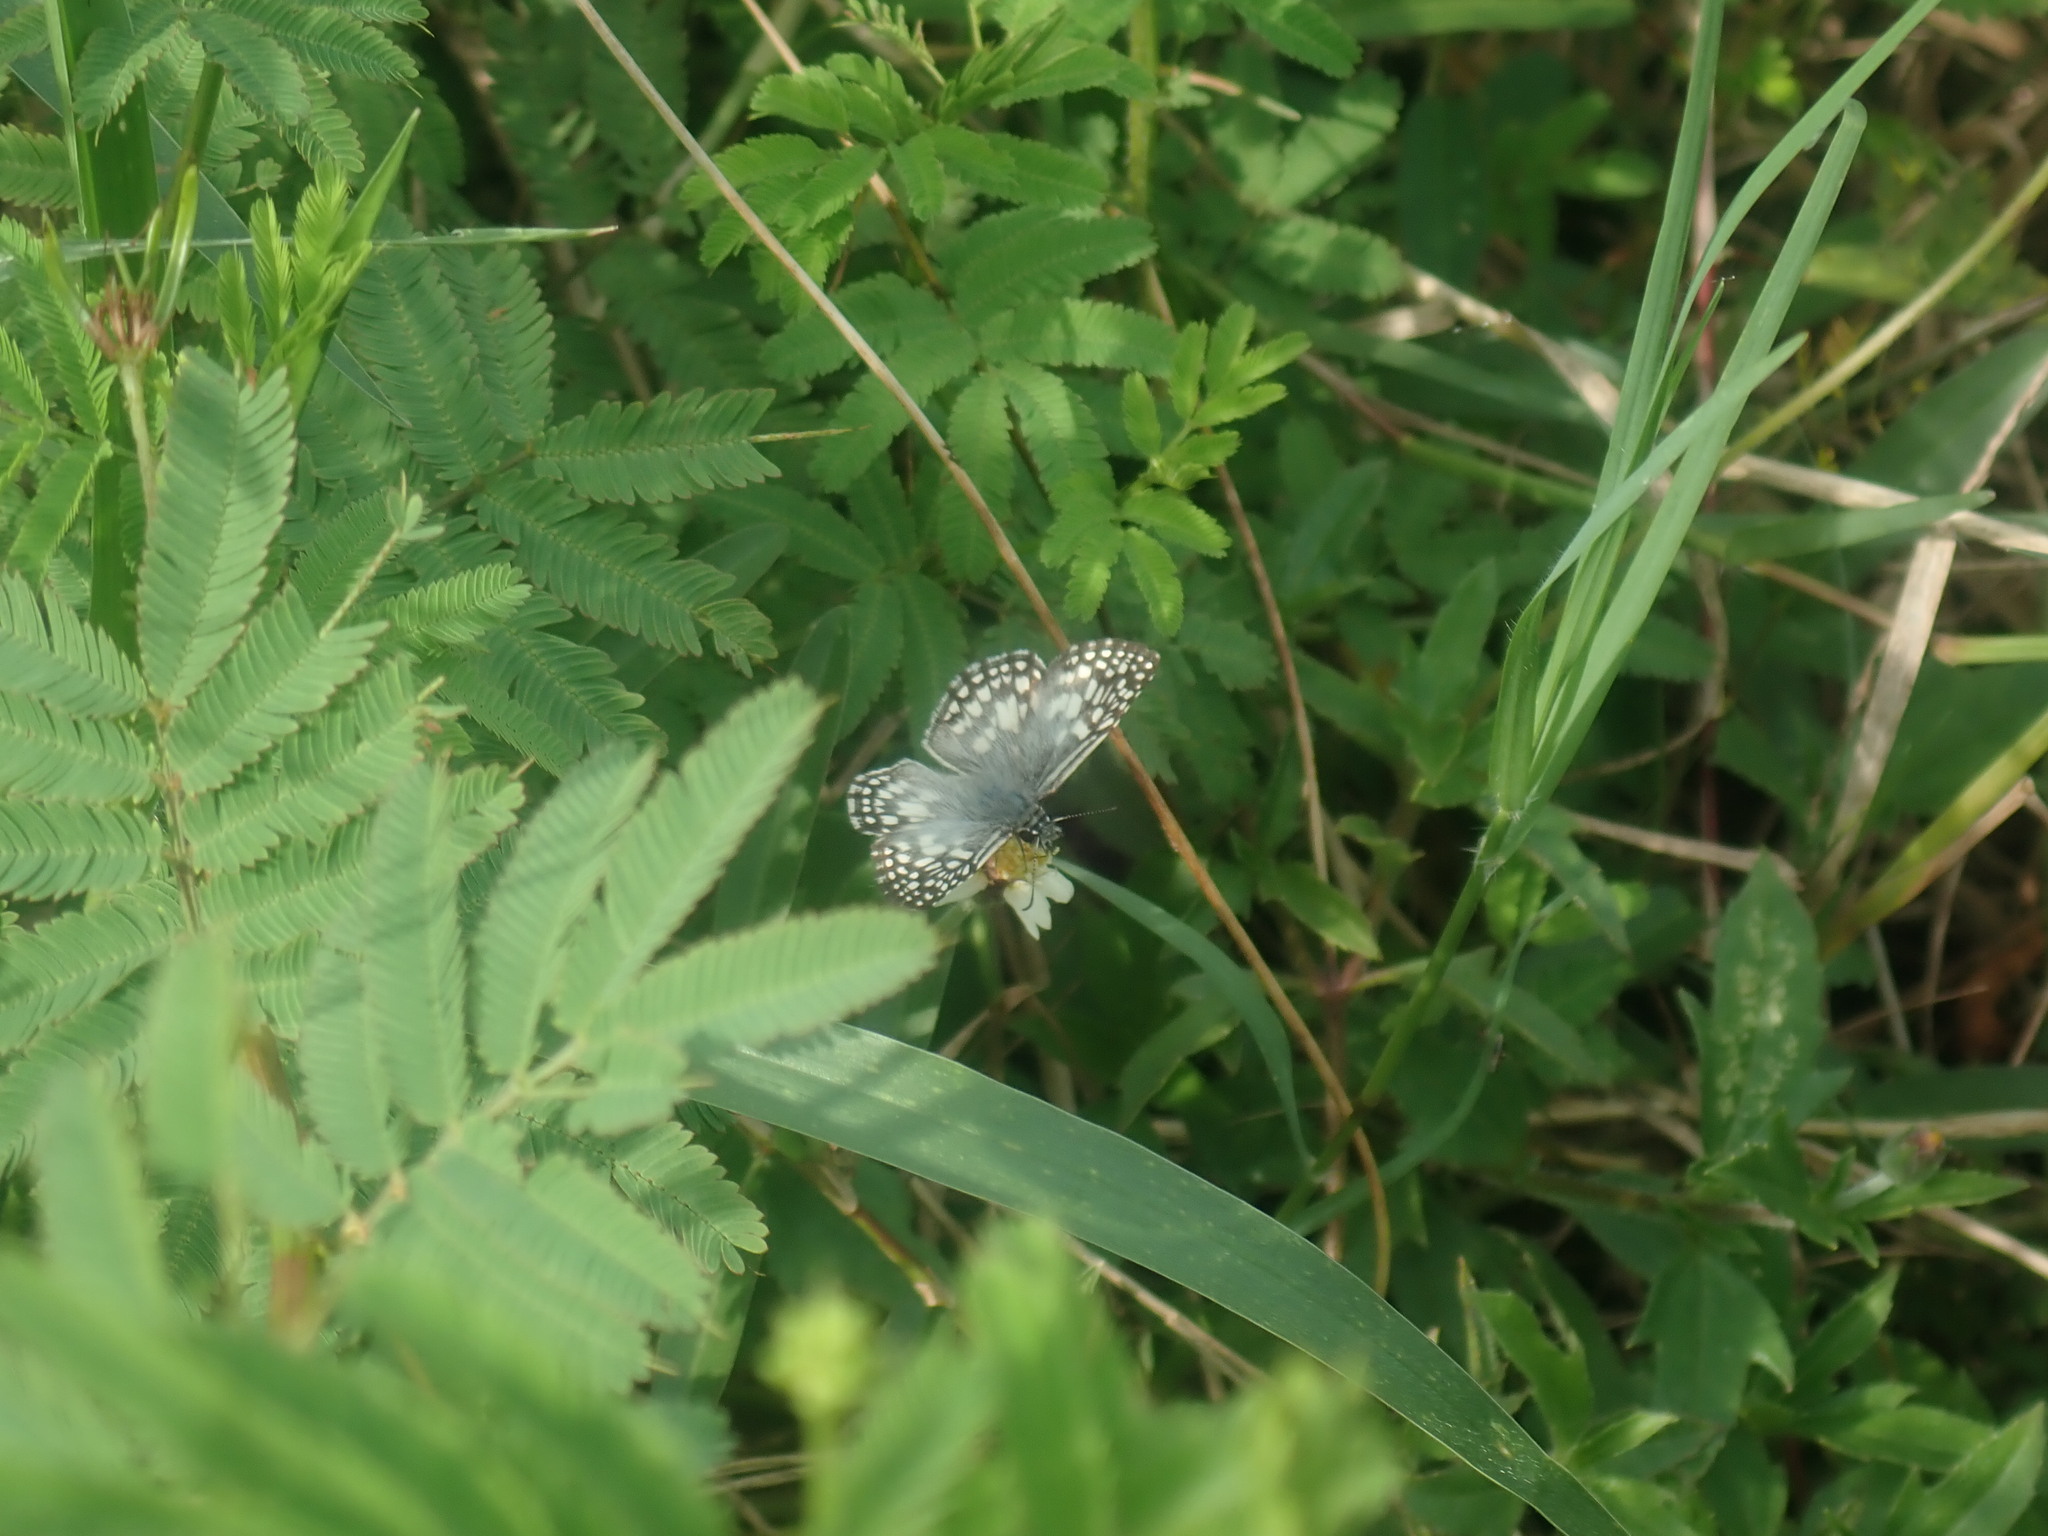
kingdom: Animalia
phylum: Arthropoda
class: Insecta
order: Lepidoptera
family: Hesperiidae
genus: Pyrgus
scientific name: Pyrgus oileus
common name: Tropical checkered-skipper
